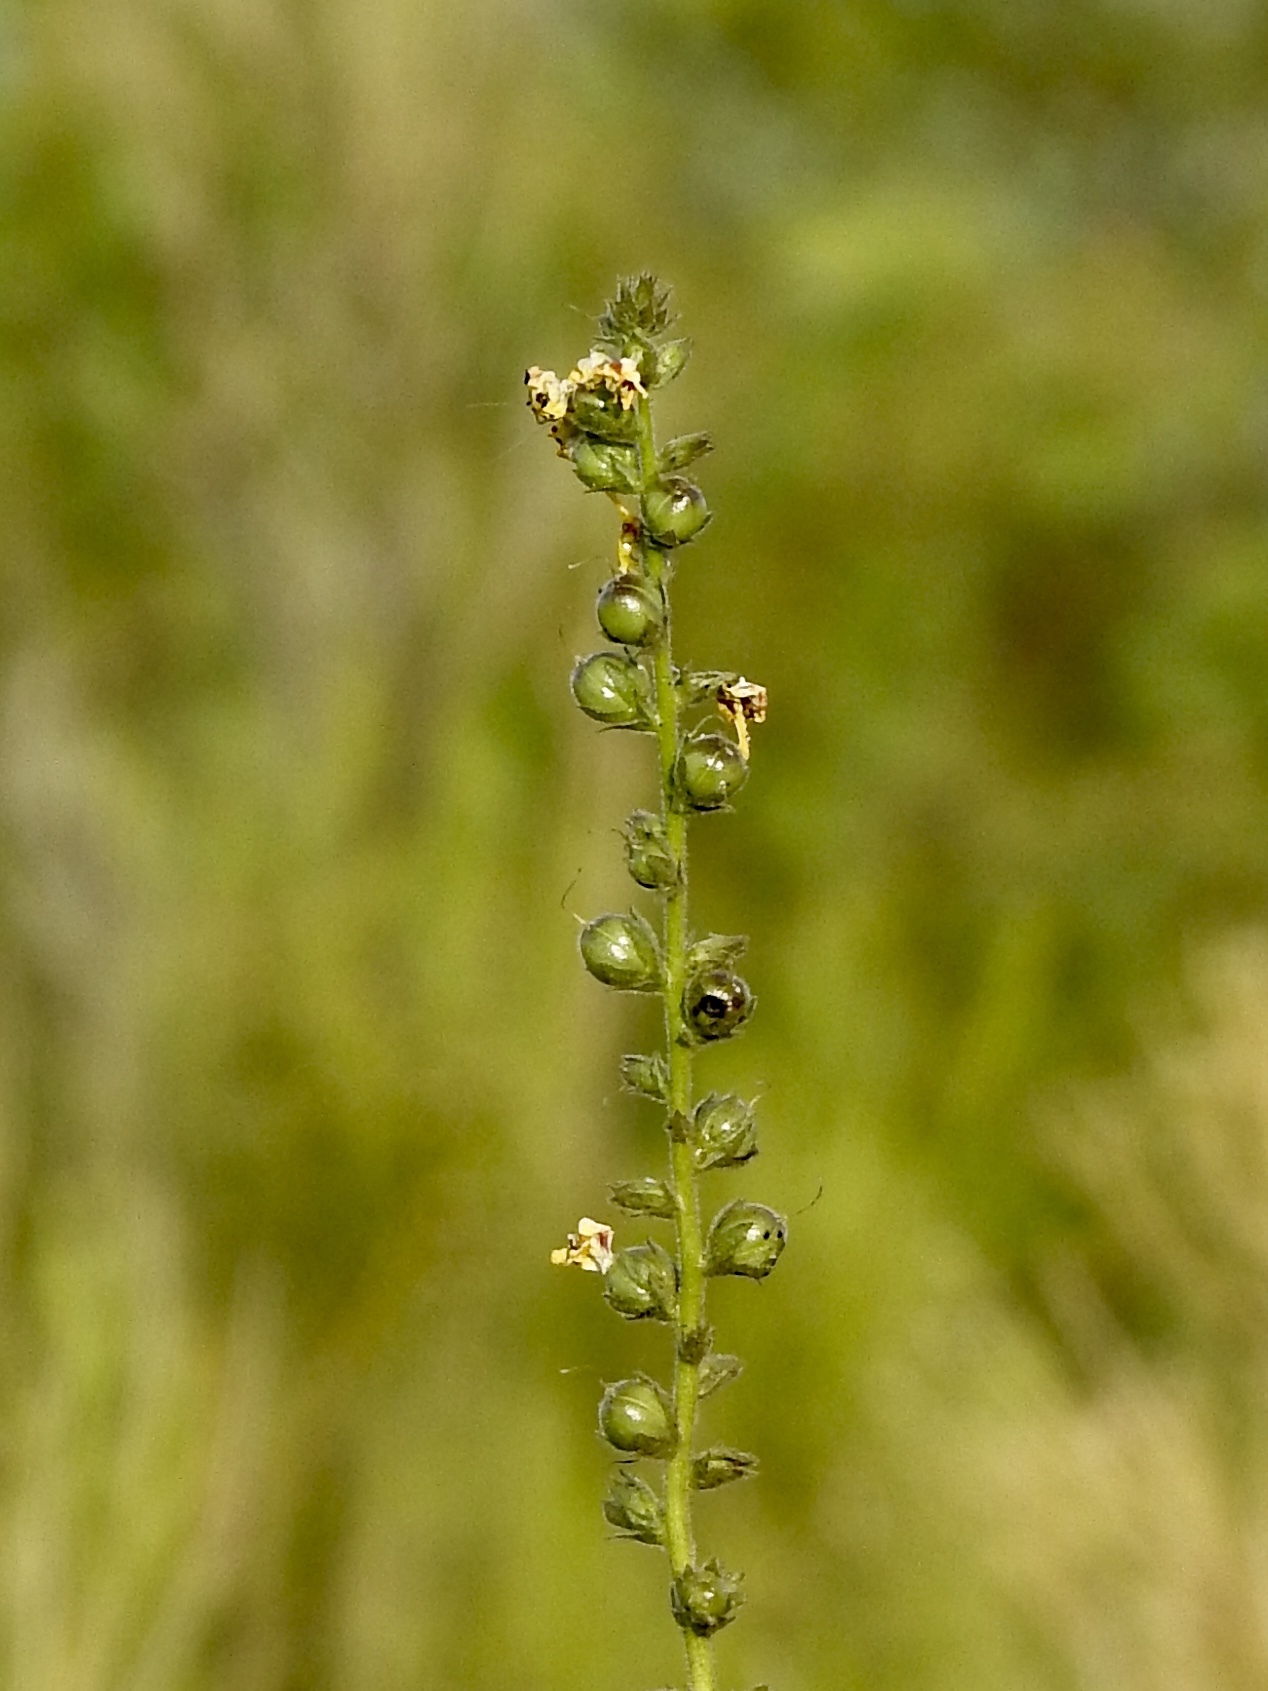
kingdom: Plantae
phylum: Tracheophyta
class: Magnoliopsida
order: Lamiales
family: Scrophulariaceae
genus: Verbascum
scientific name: Verbascum virgatum
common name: Twiggy mullein
